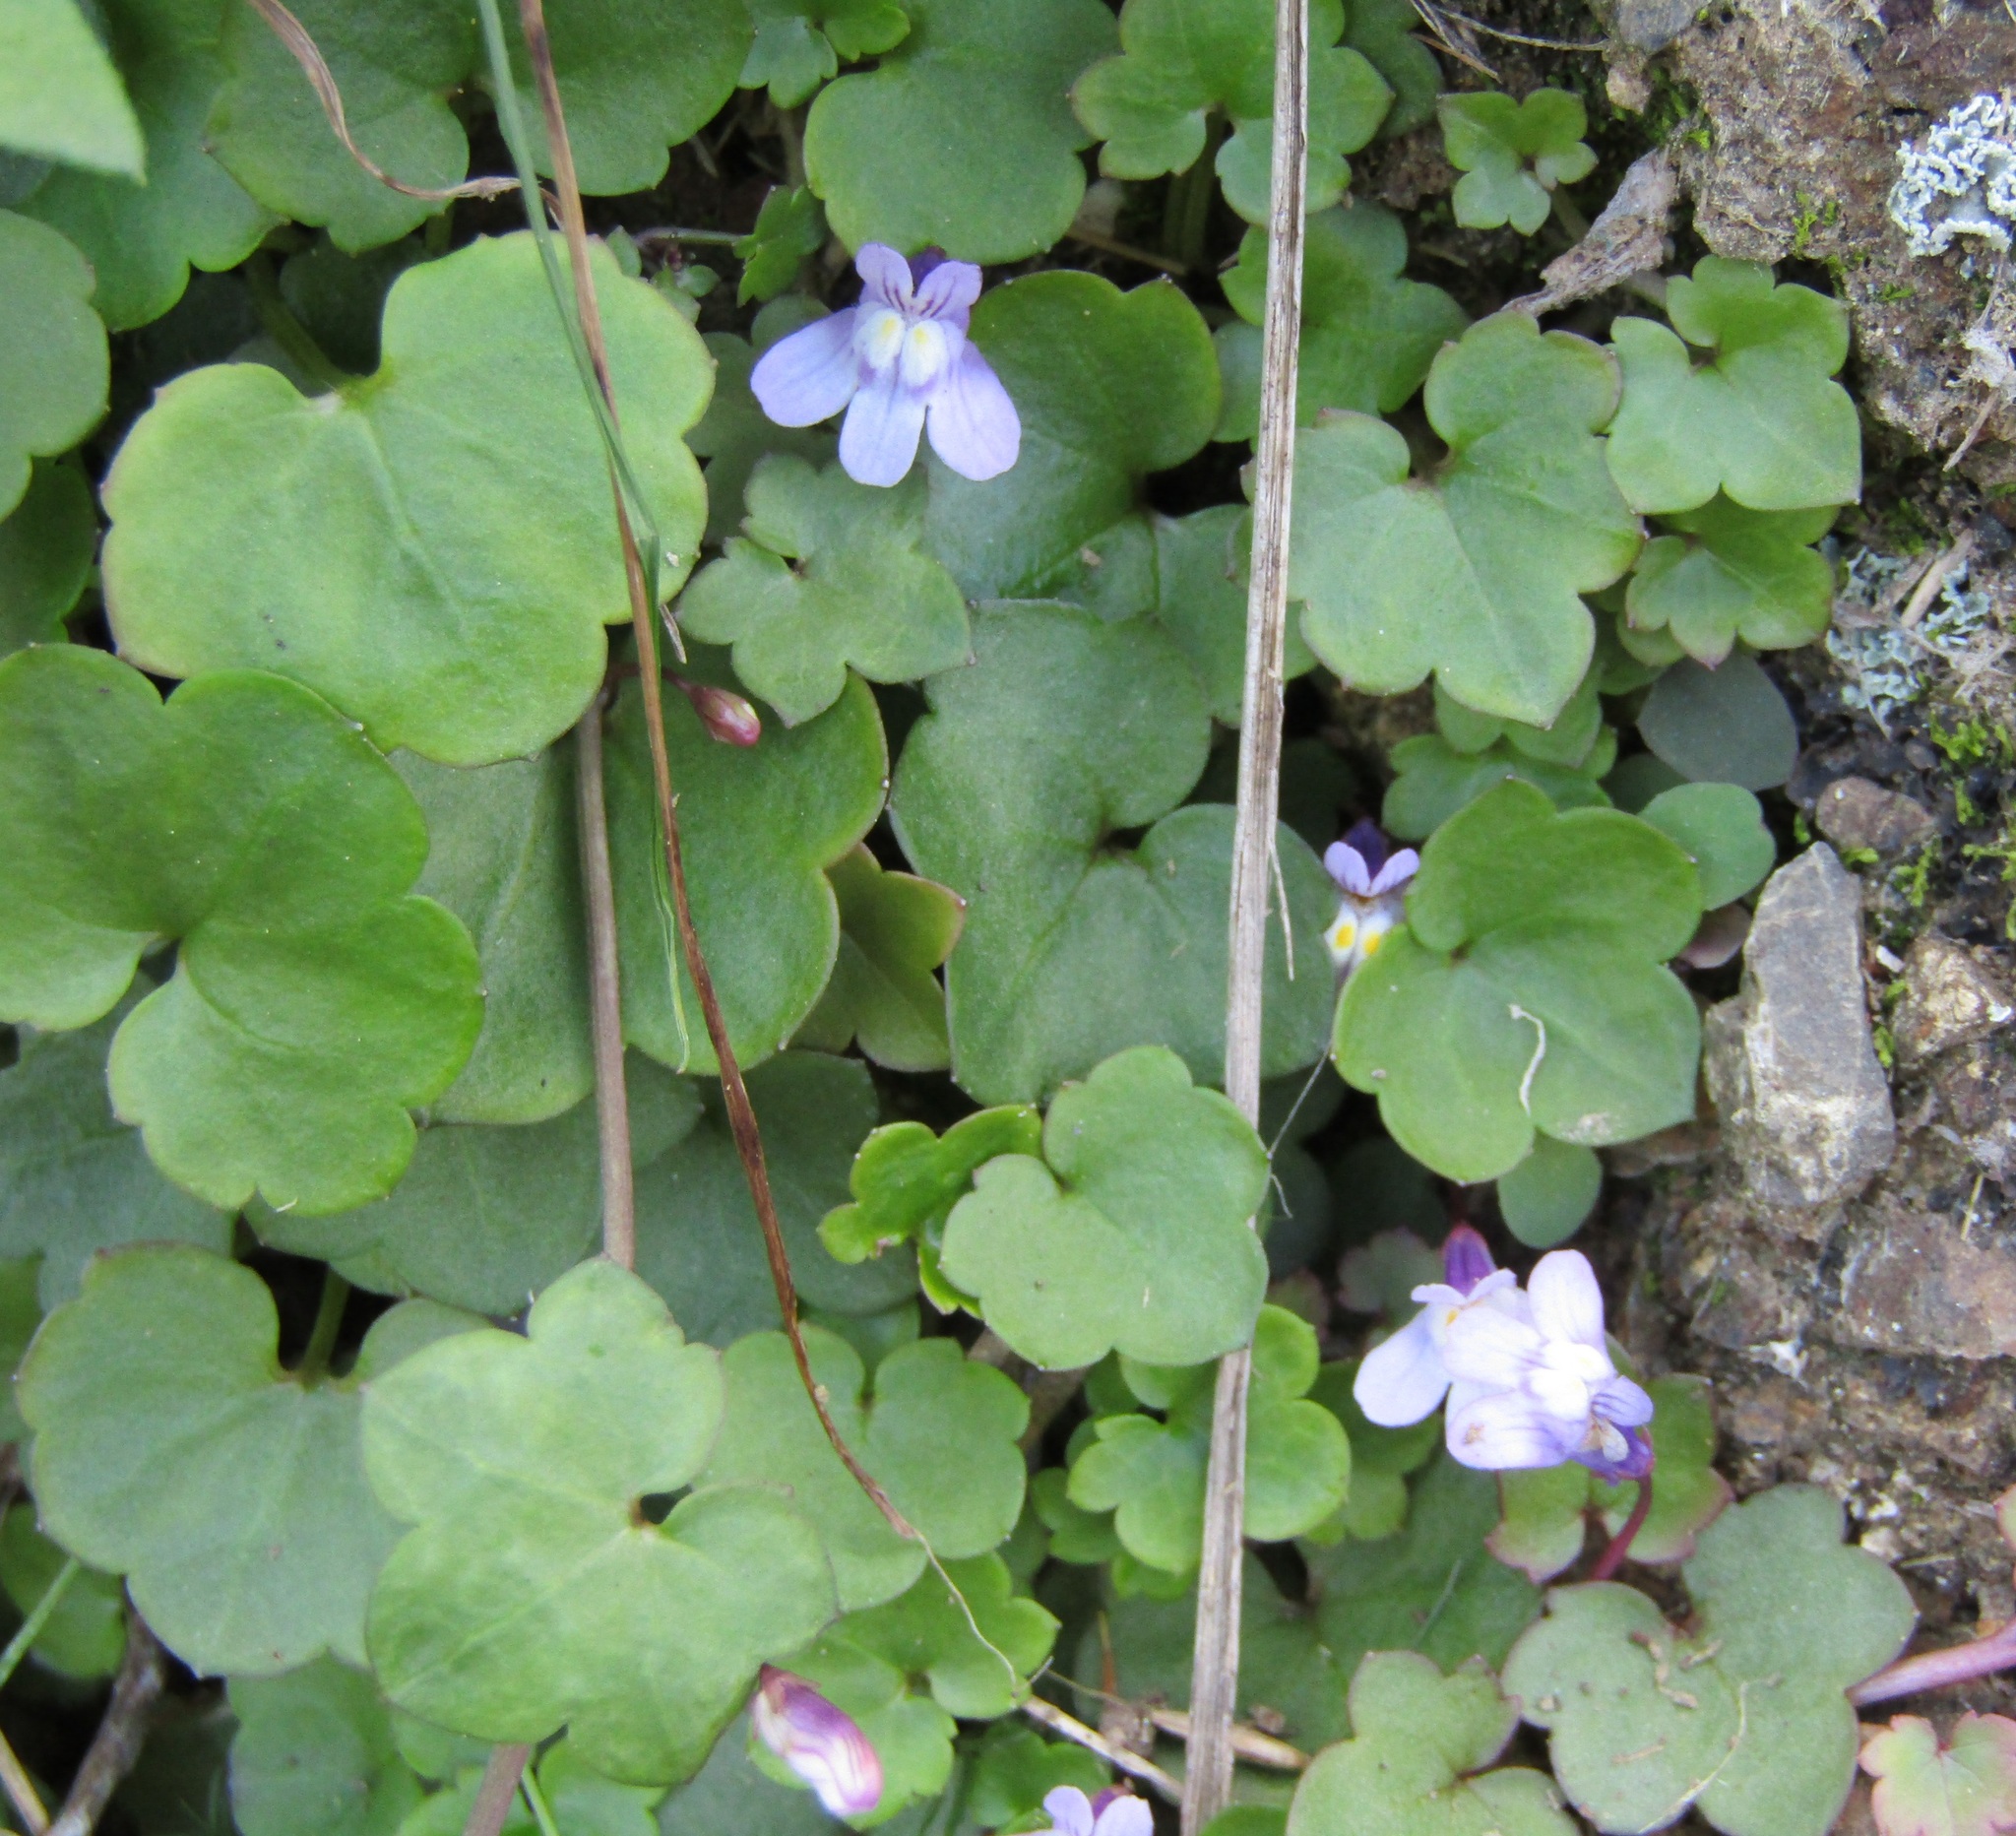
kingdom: Plantae
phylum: Tracheophyta
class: Magnoliopsida
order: Lamiales
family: Plantaginaceae
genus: Cymbalaria
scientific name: Cymbalaria muralis
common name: Ivy-leaved toadflax
